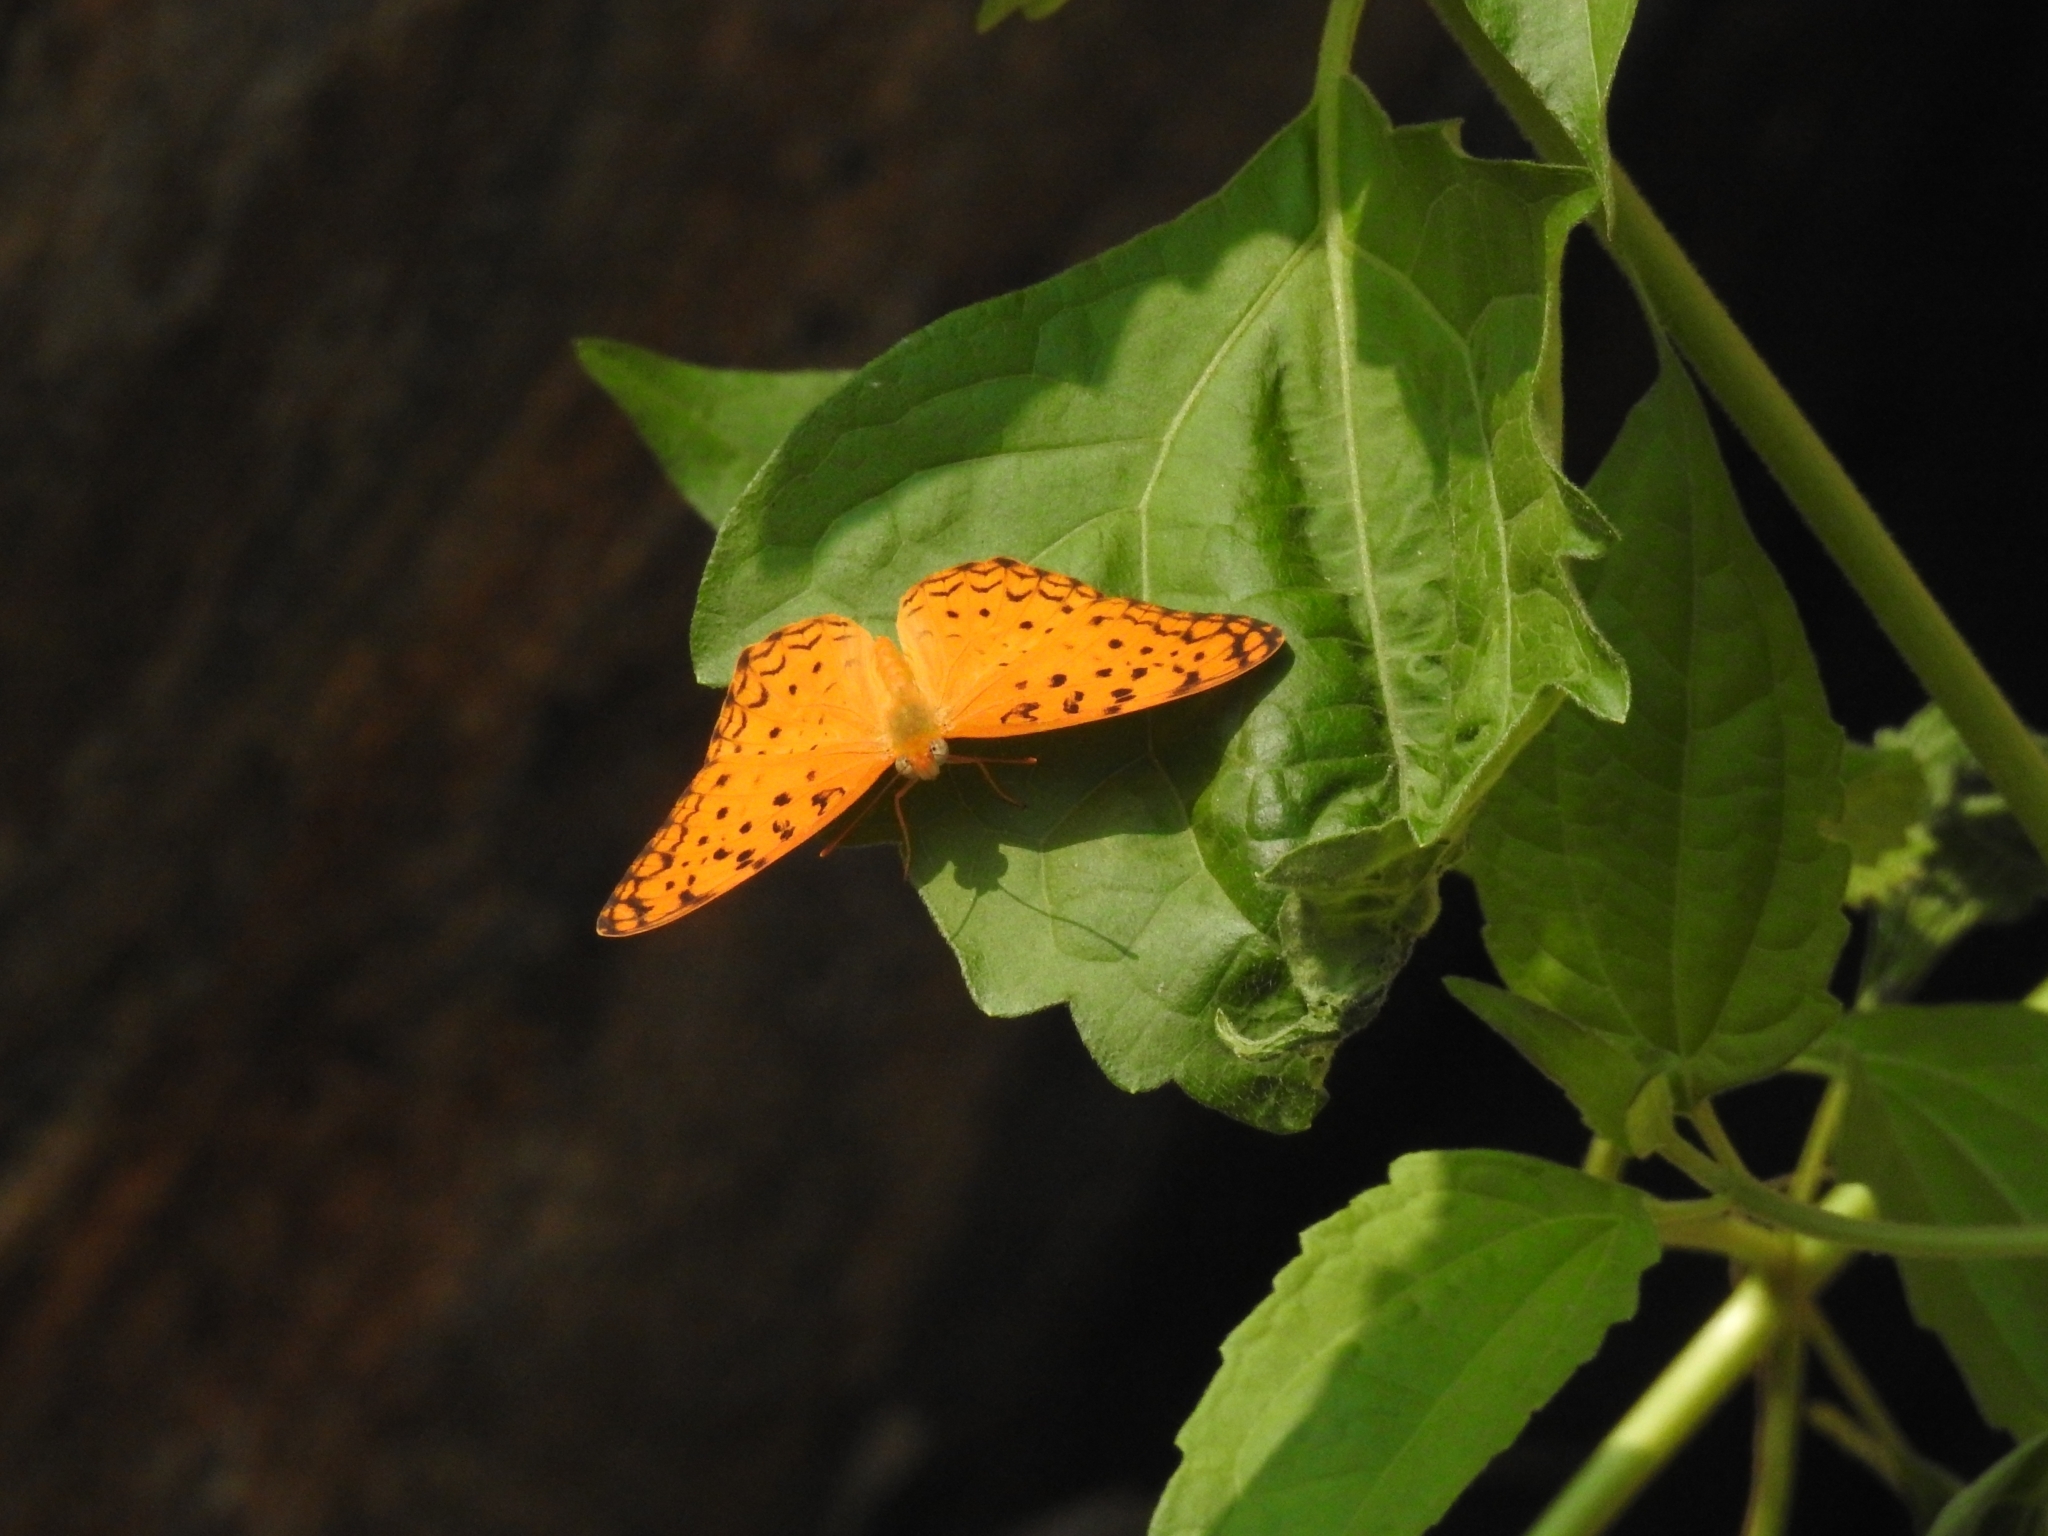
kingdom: Animalia
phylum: Arthropoda
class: Insecta
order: Lepidoptera
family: Nymphalidae
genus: Phalanta
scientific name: Phalanta phalantha
